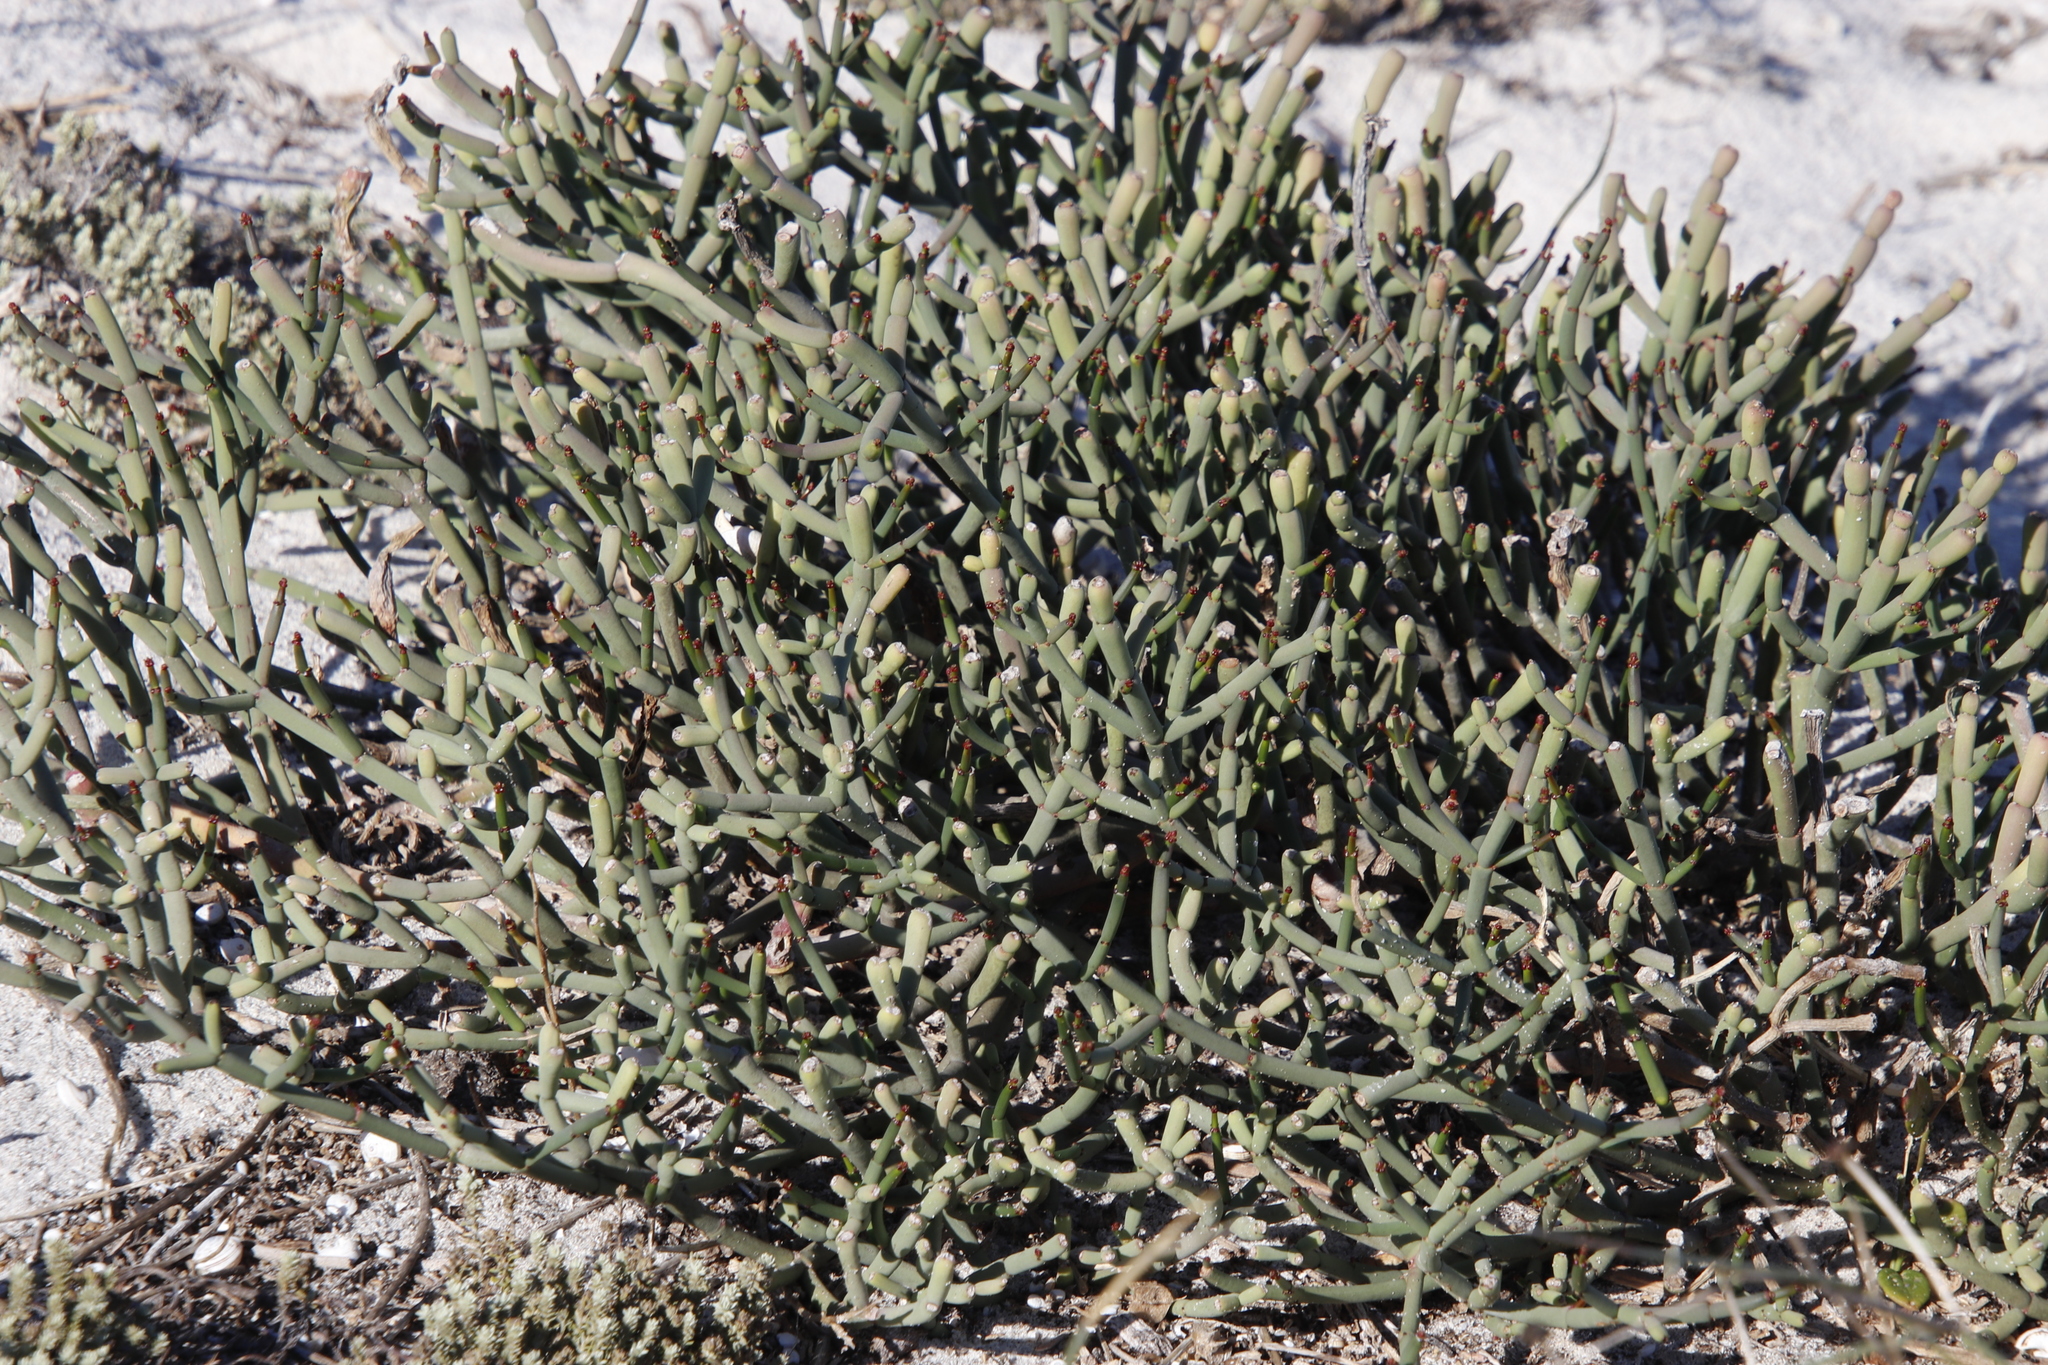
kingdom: Plantae
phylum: Tracheophyta
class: Magnoliopsida
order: Malpighiales
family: Euphorbiaceae
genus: Euphorbia
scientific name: Euphorbia burmanni
